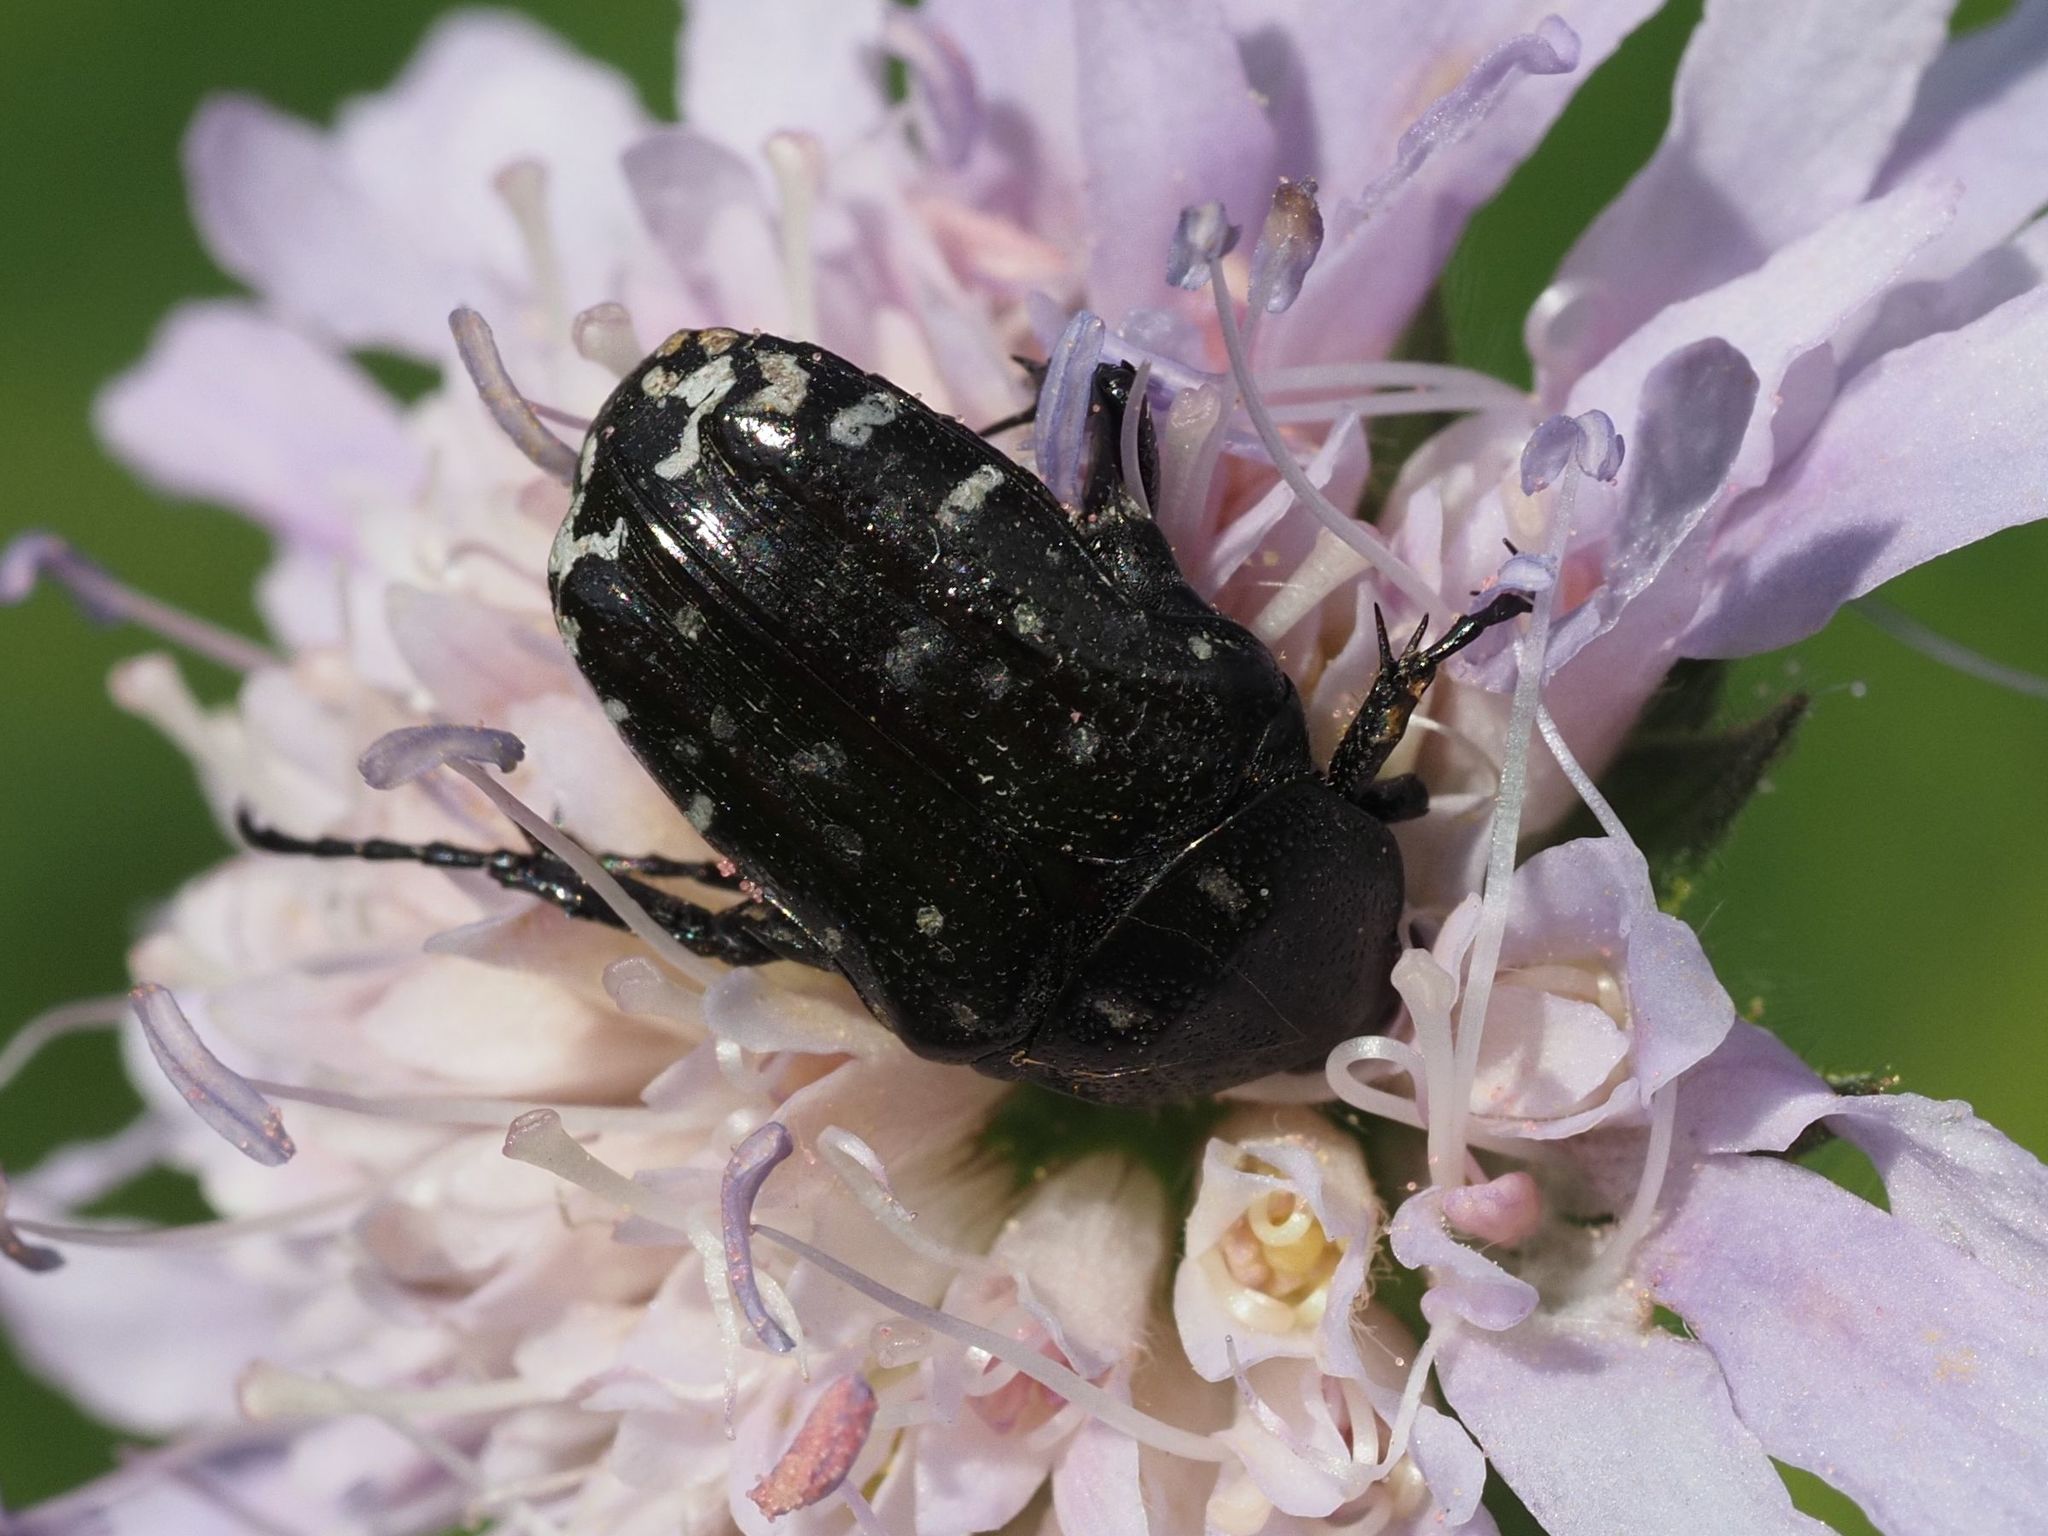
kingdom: Animalia
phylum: Arthropoda
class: Insecta
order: Coleoptera
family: Scarabaeidae
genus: Oxythyrea
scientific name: Oxythyrea funesta
